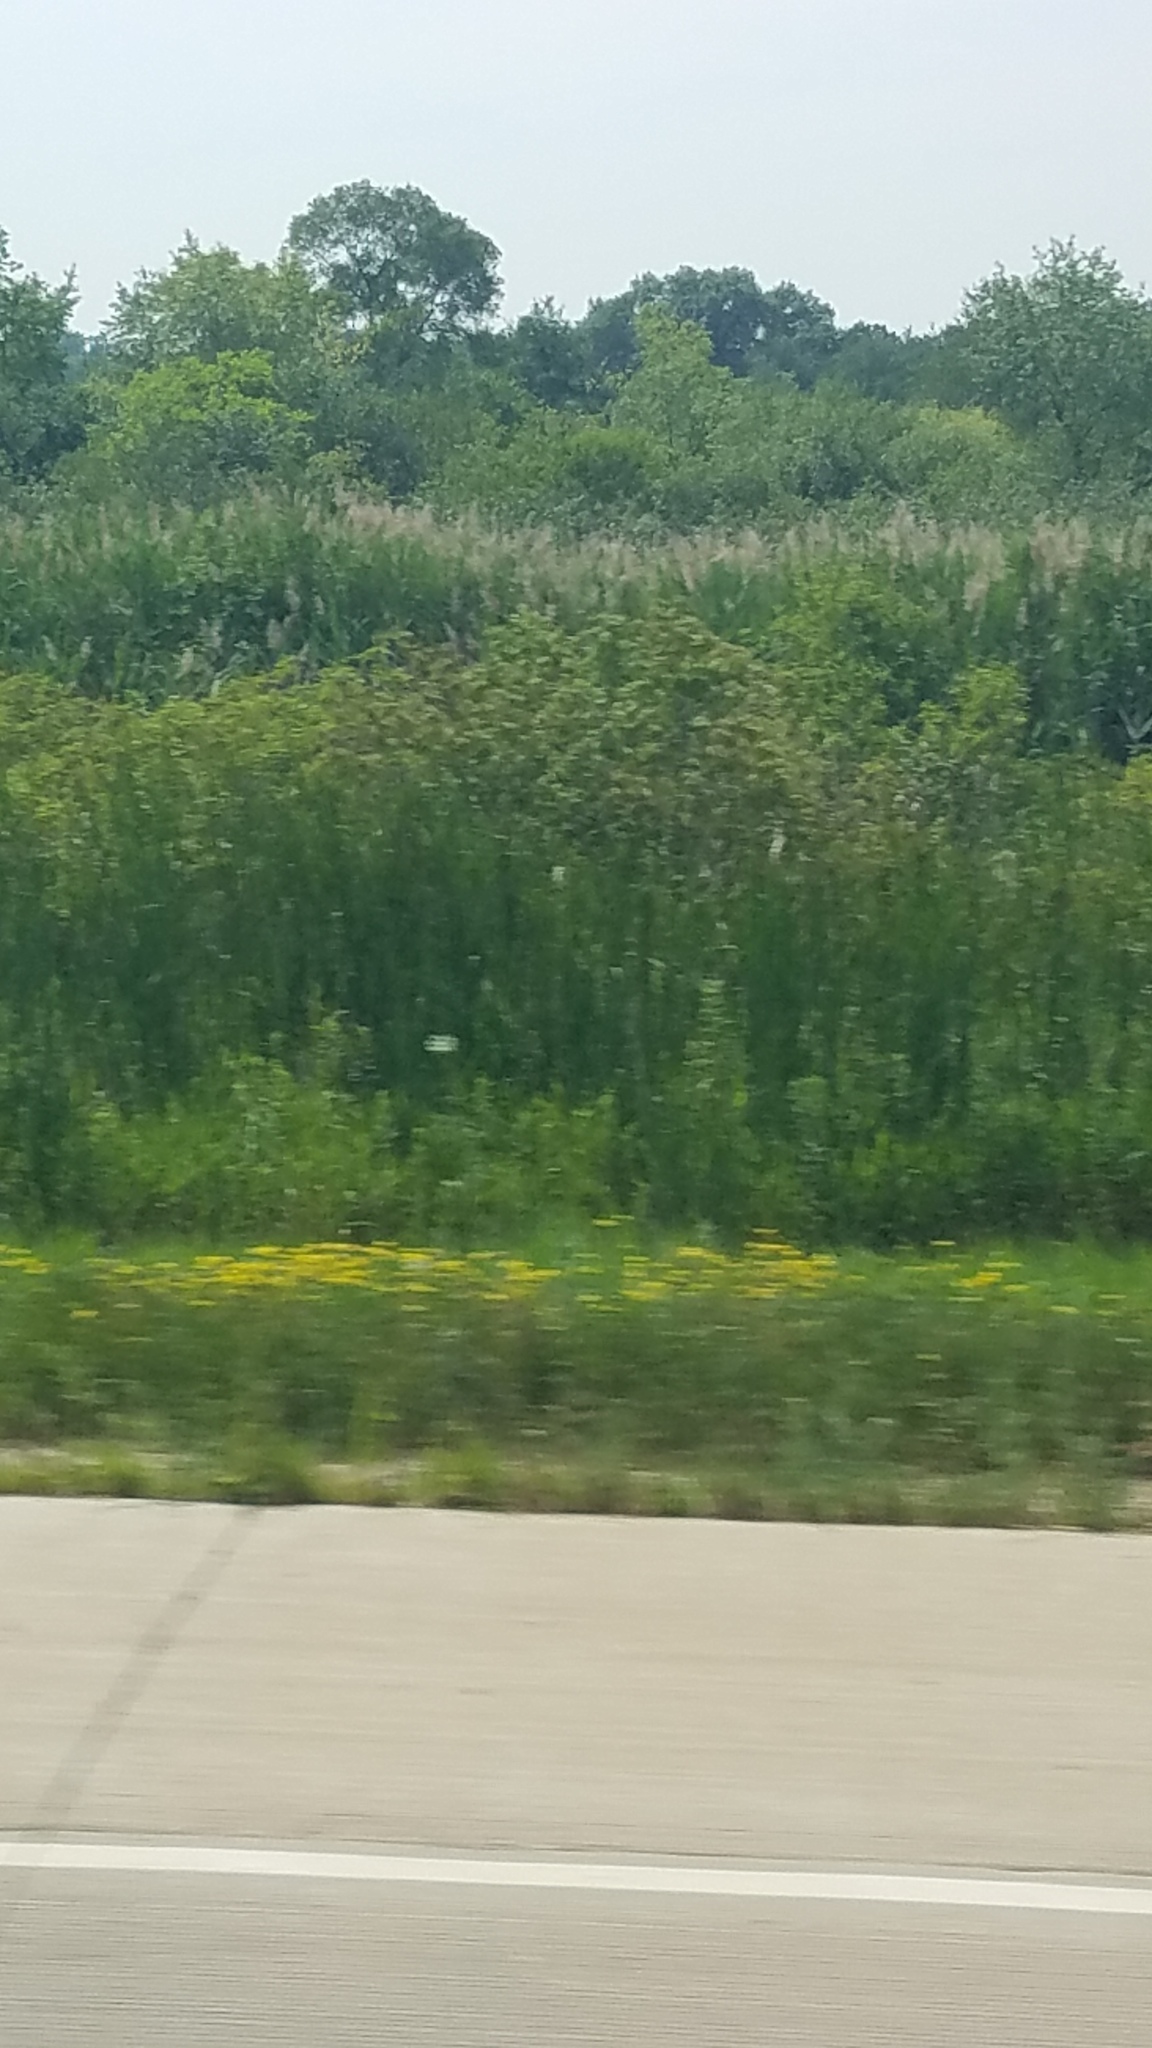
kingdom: Plantae
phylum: Tracheophyta
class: Magnoliopsida
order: Fabales
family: Fabaceae
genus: Lotus
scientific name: Lotus corniculatus
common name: Common bird's-foot-trefoil
